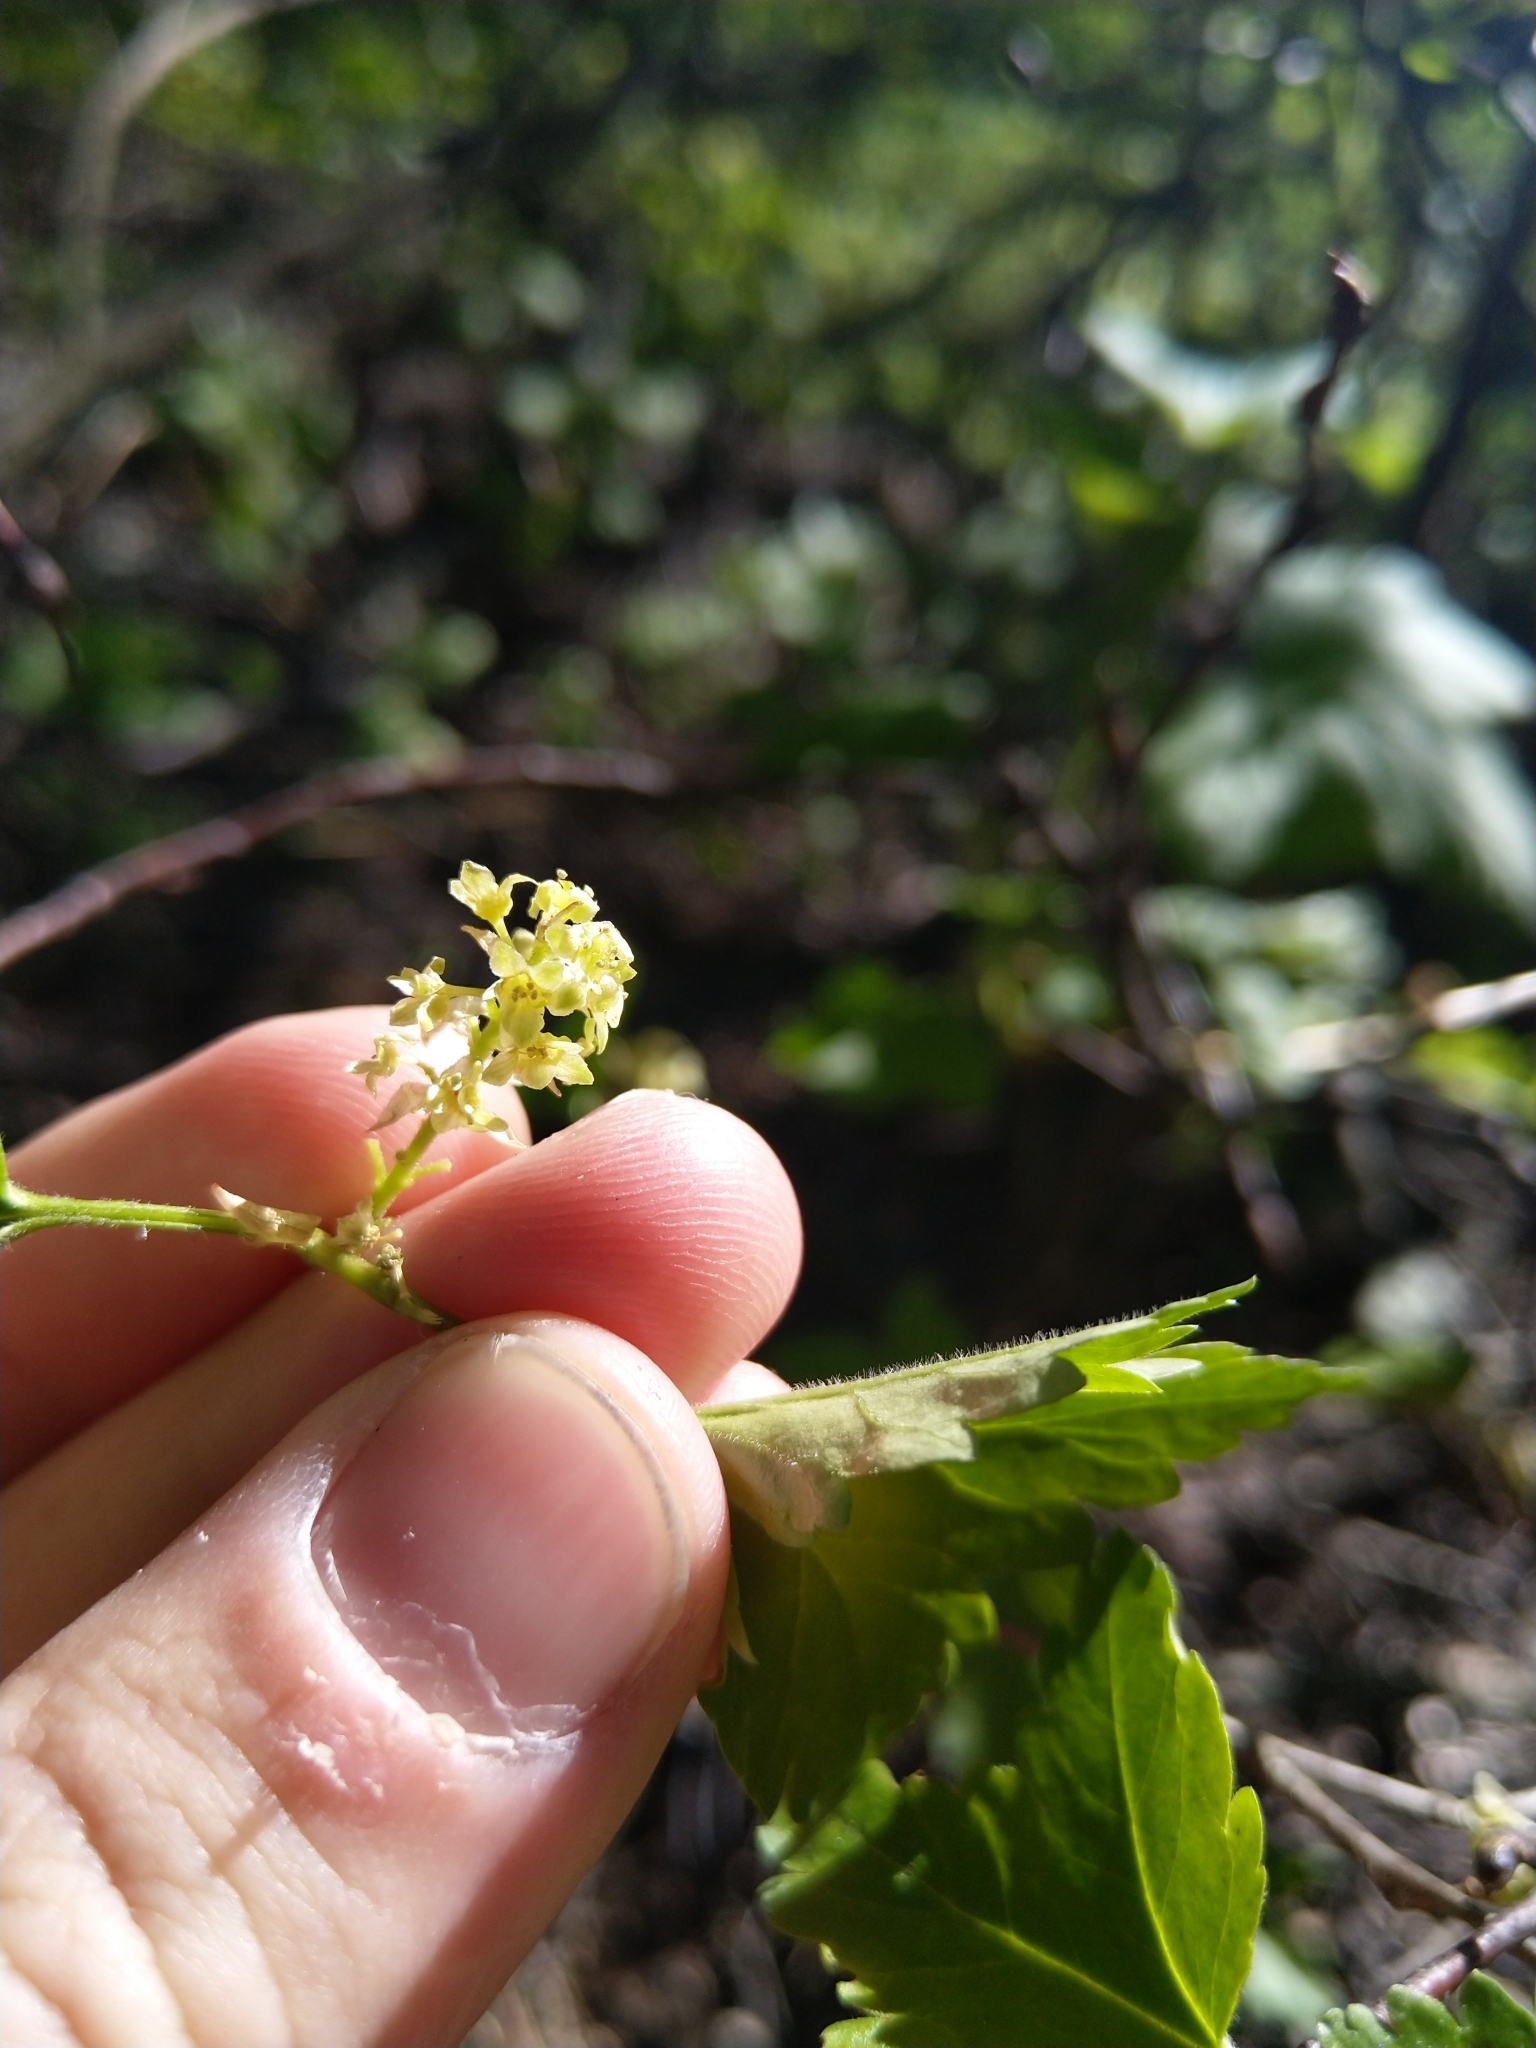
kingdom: Plantae
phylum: Tracheophyta
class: Magnoliopsida
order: Saxifragales
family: Grossulariaceae
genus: Ribes
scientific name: Ribes alpinum
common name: Alpine currant
